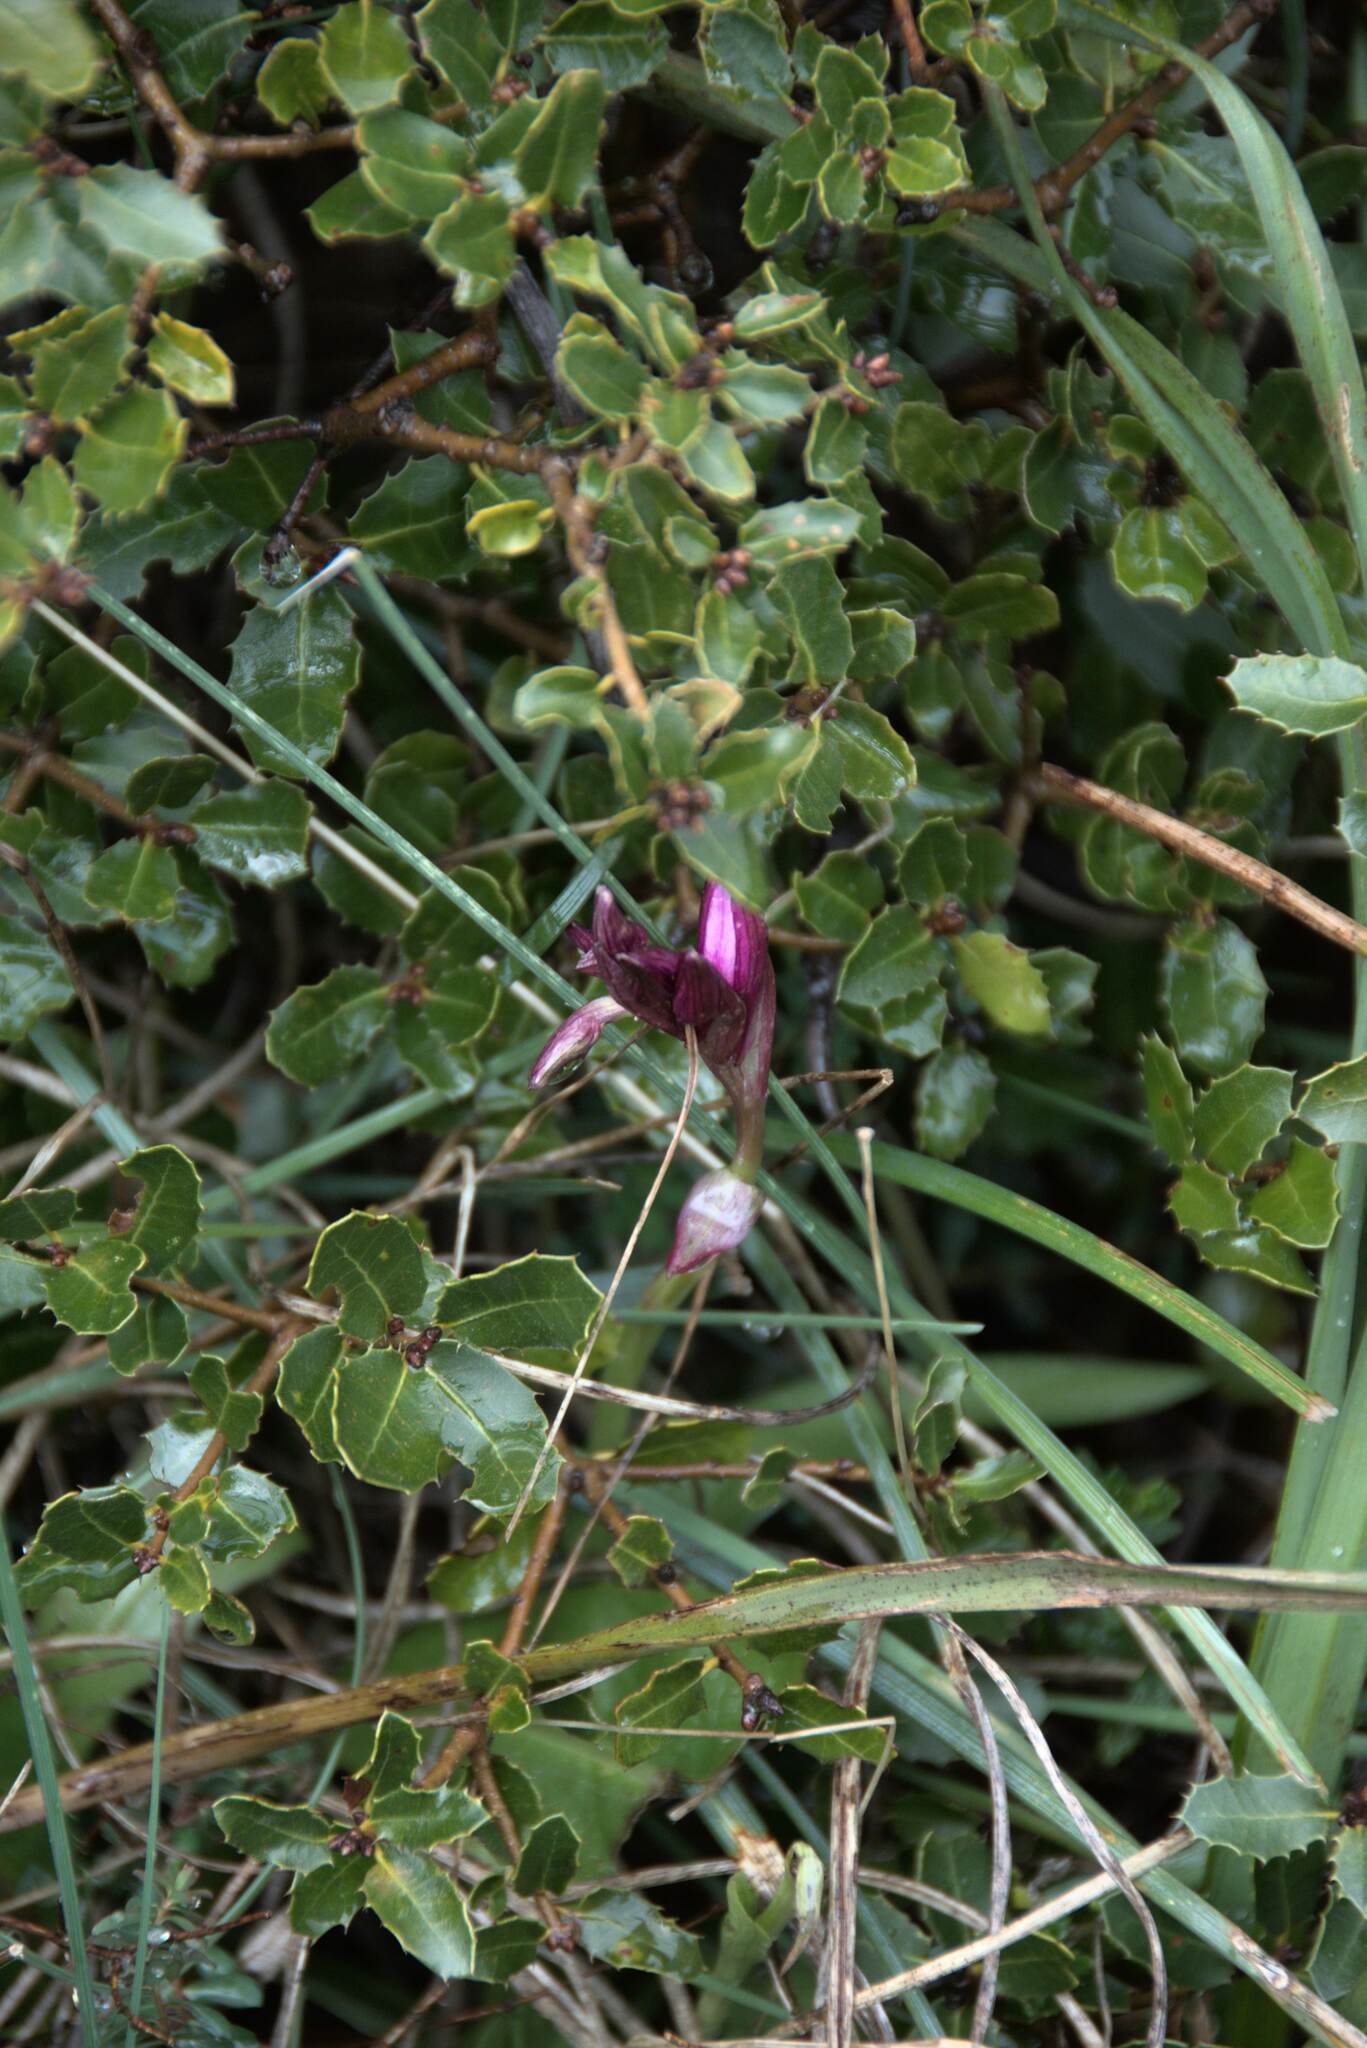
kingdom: Plantae
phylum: Tracheophyta
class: Liliopsida
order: Asparagales
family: Orchidaceae
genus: Anacamptis
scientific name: Anacamptis papilionacea
